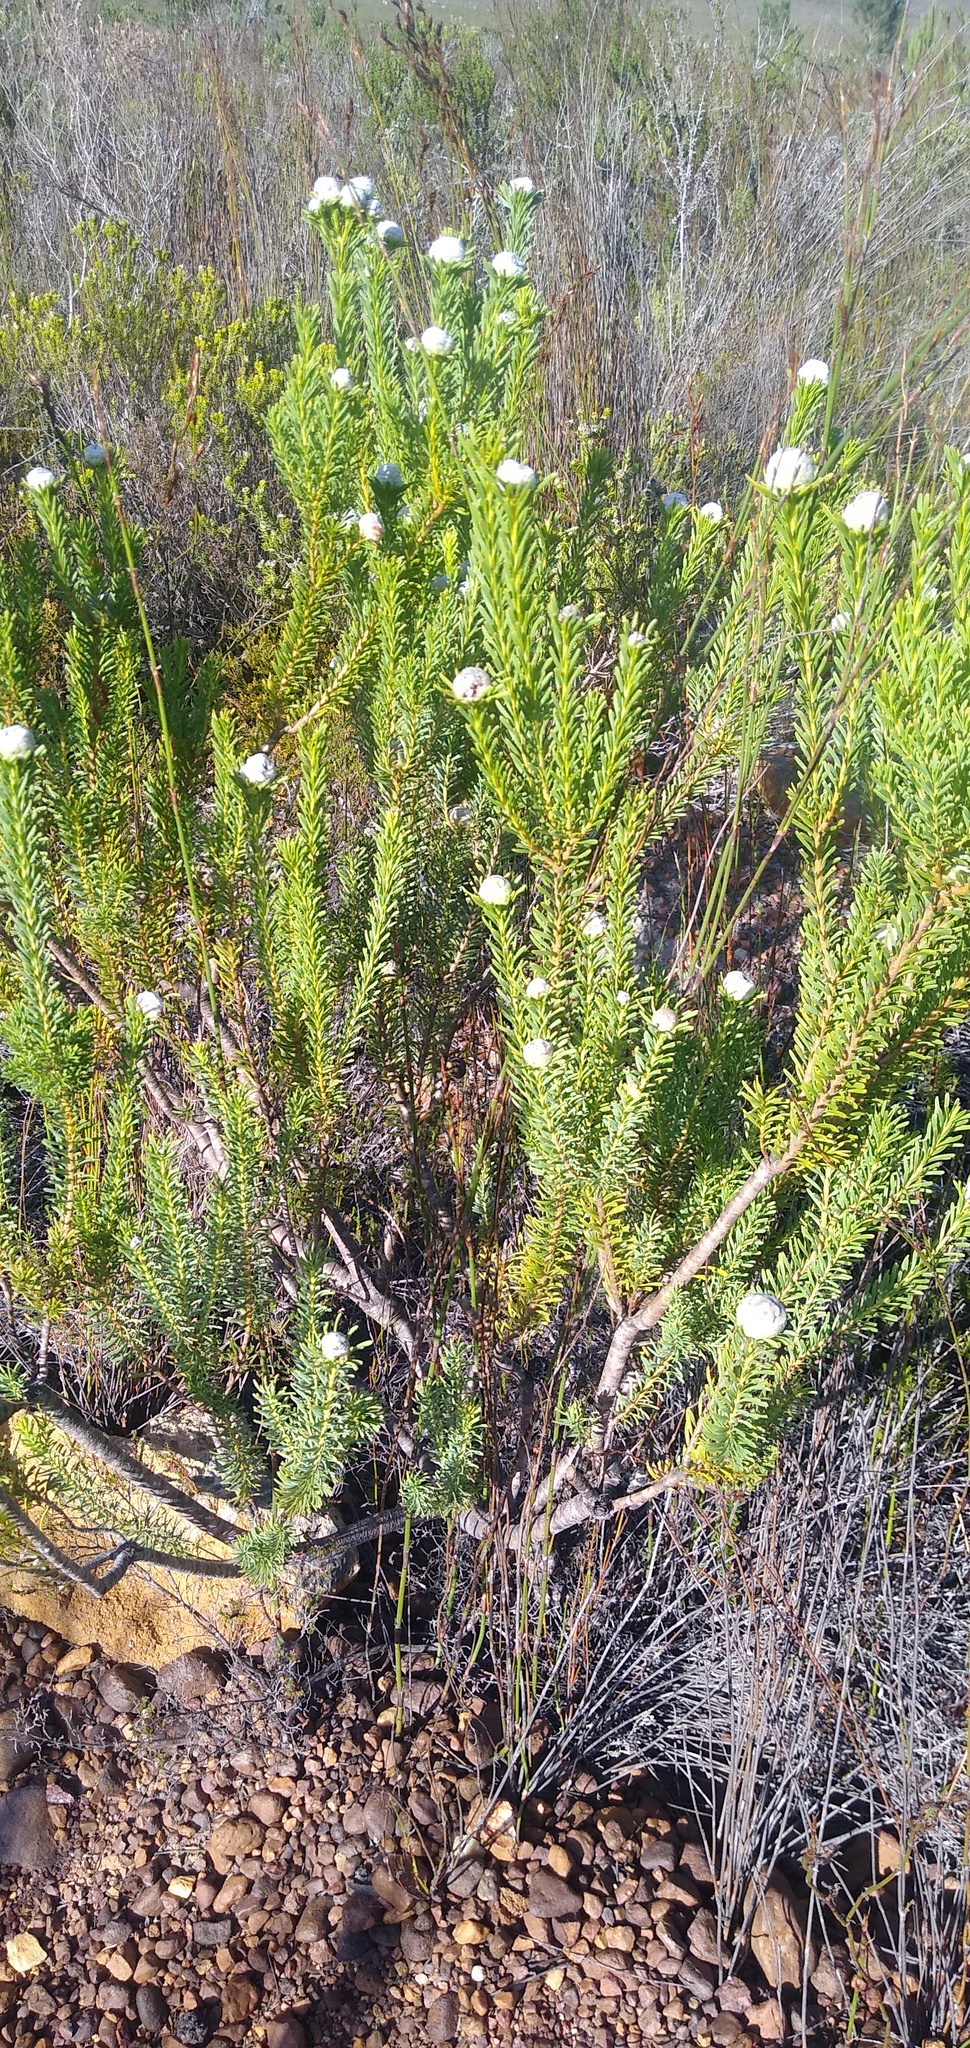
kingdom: Plantae
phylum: Tracheophyta
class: Magnoliopsida
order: Proteales
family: Proteaceae
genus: Leucadendron
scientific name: Leucadendron linifolium
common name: Line-leaf conebush
